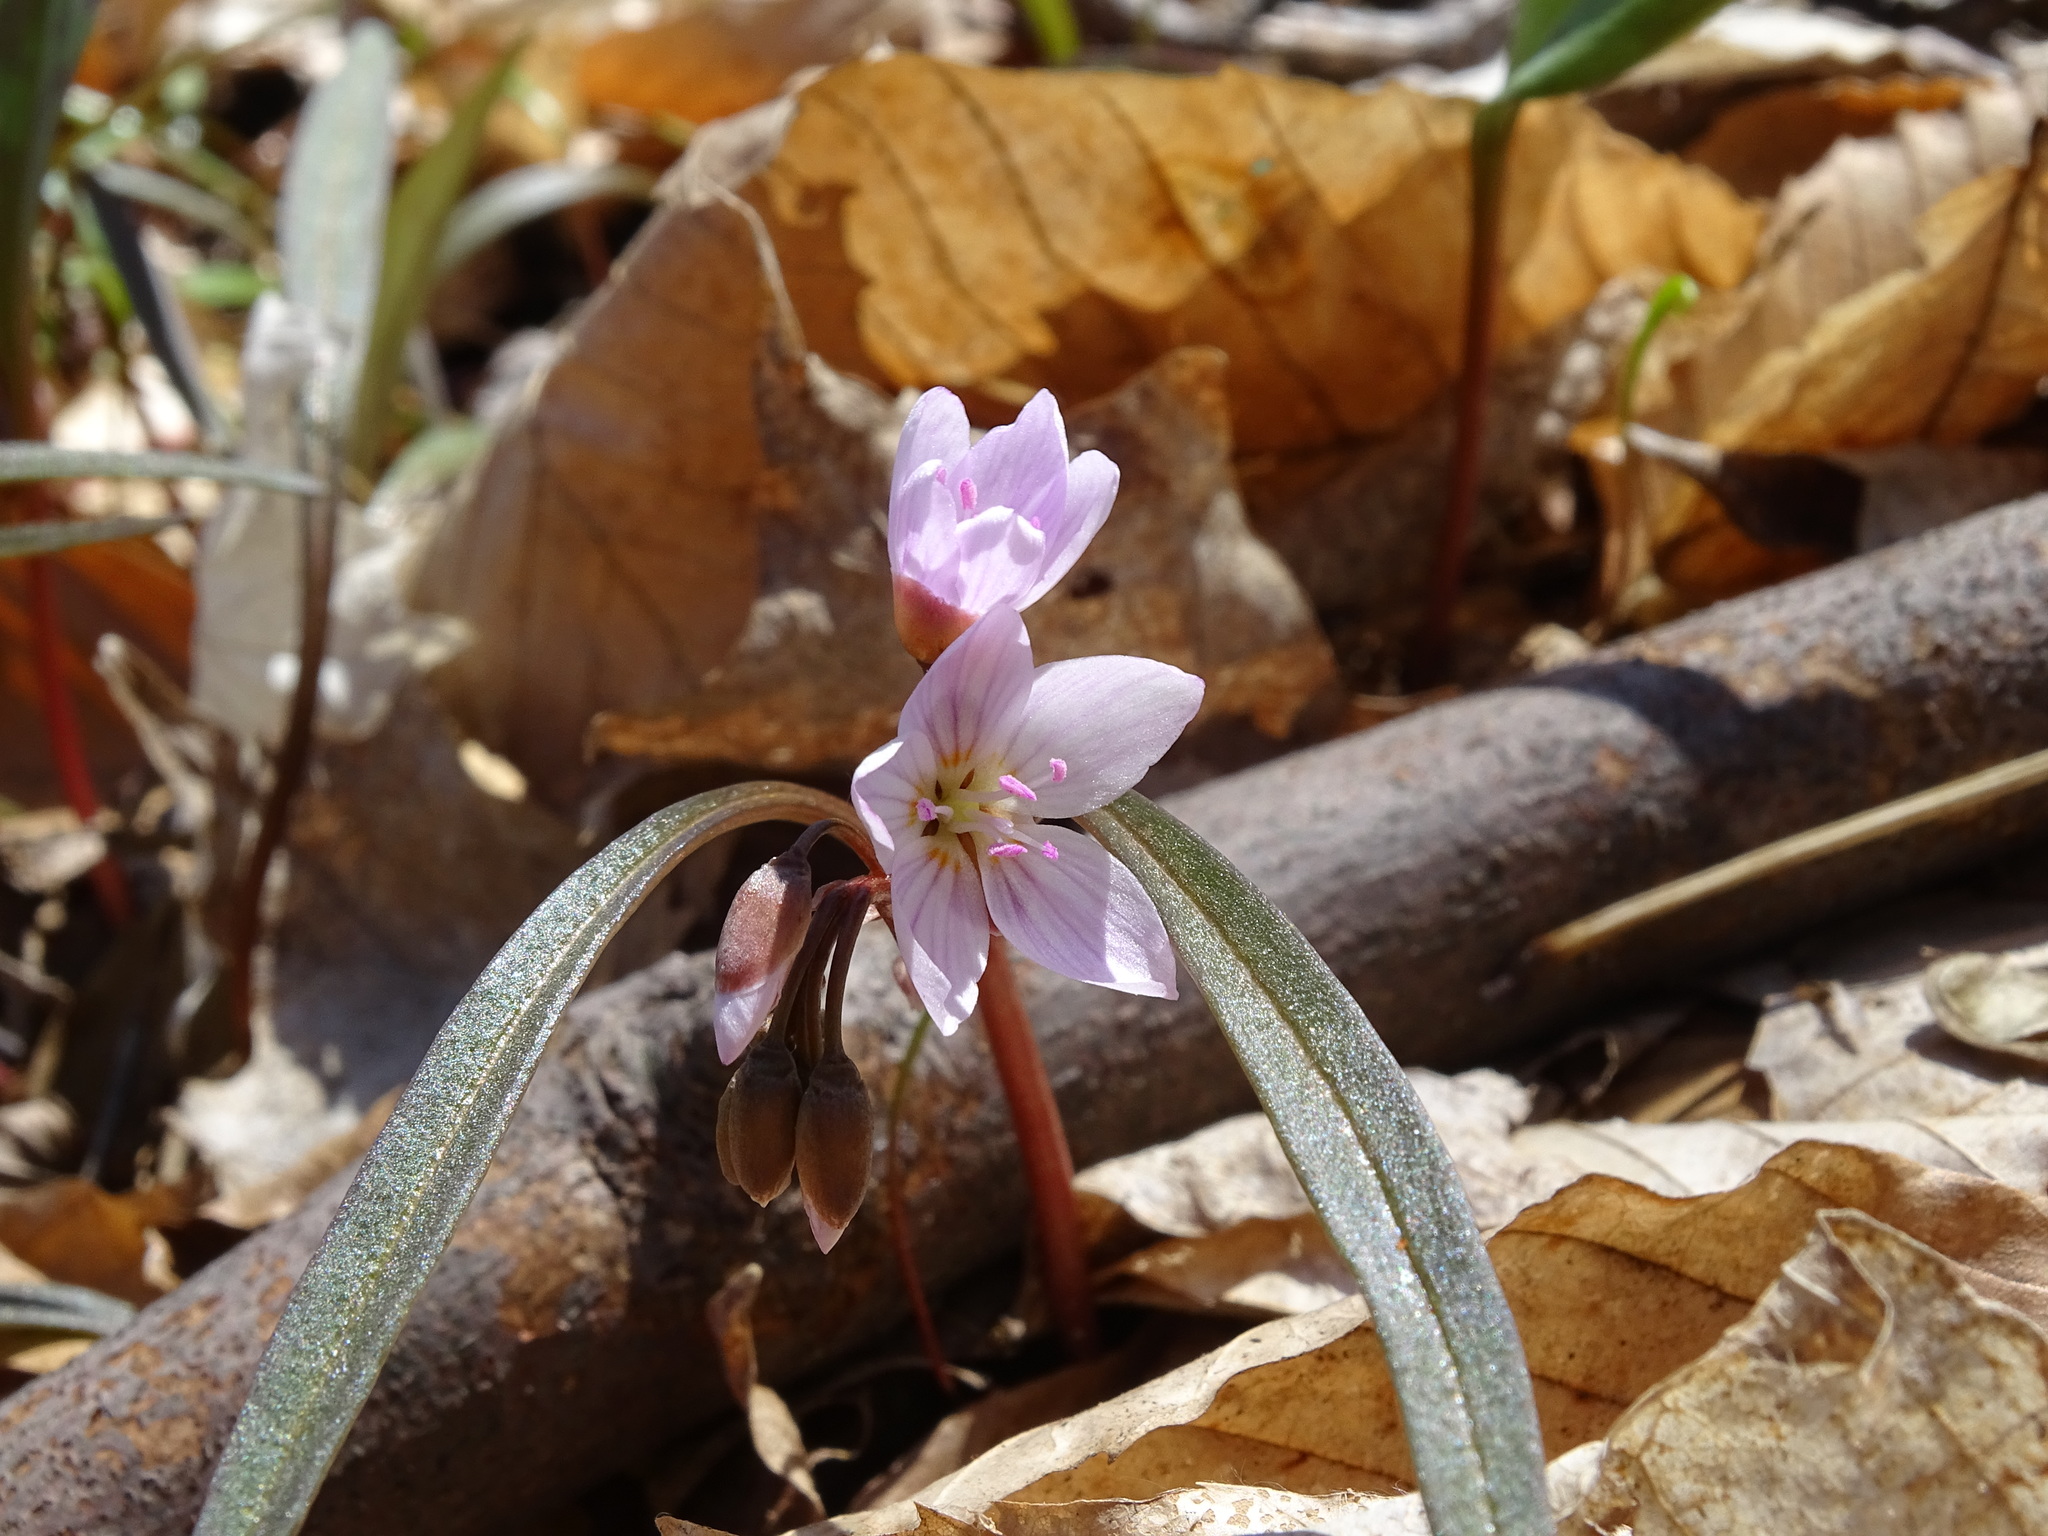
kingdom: Plantae
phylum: Tracheophyta
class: Magnoliopsida
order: Caryophyllales
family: Montiaceae
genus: Claytonia
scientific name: Claytonia virginica
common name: Virginia springbeauty
